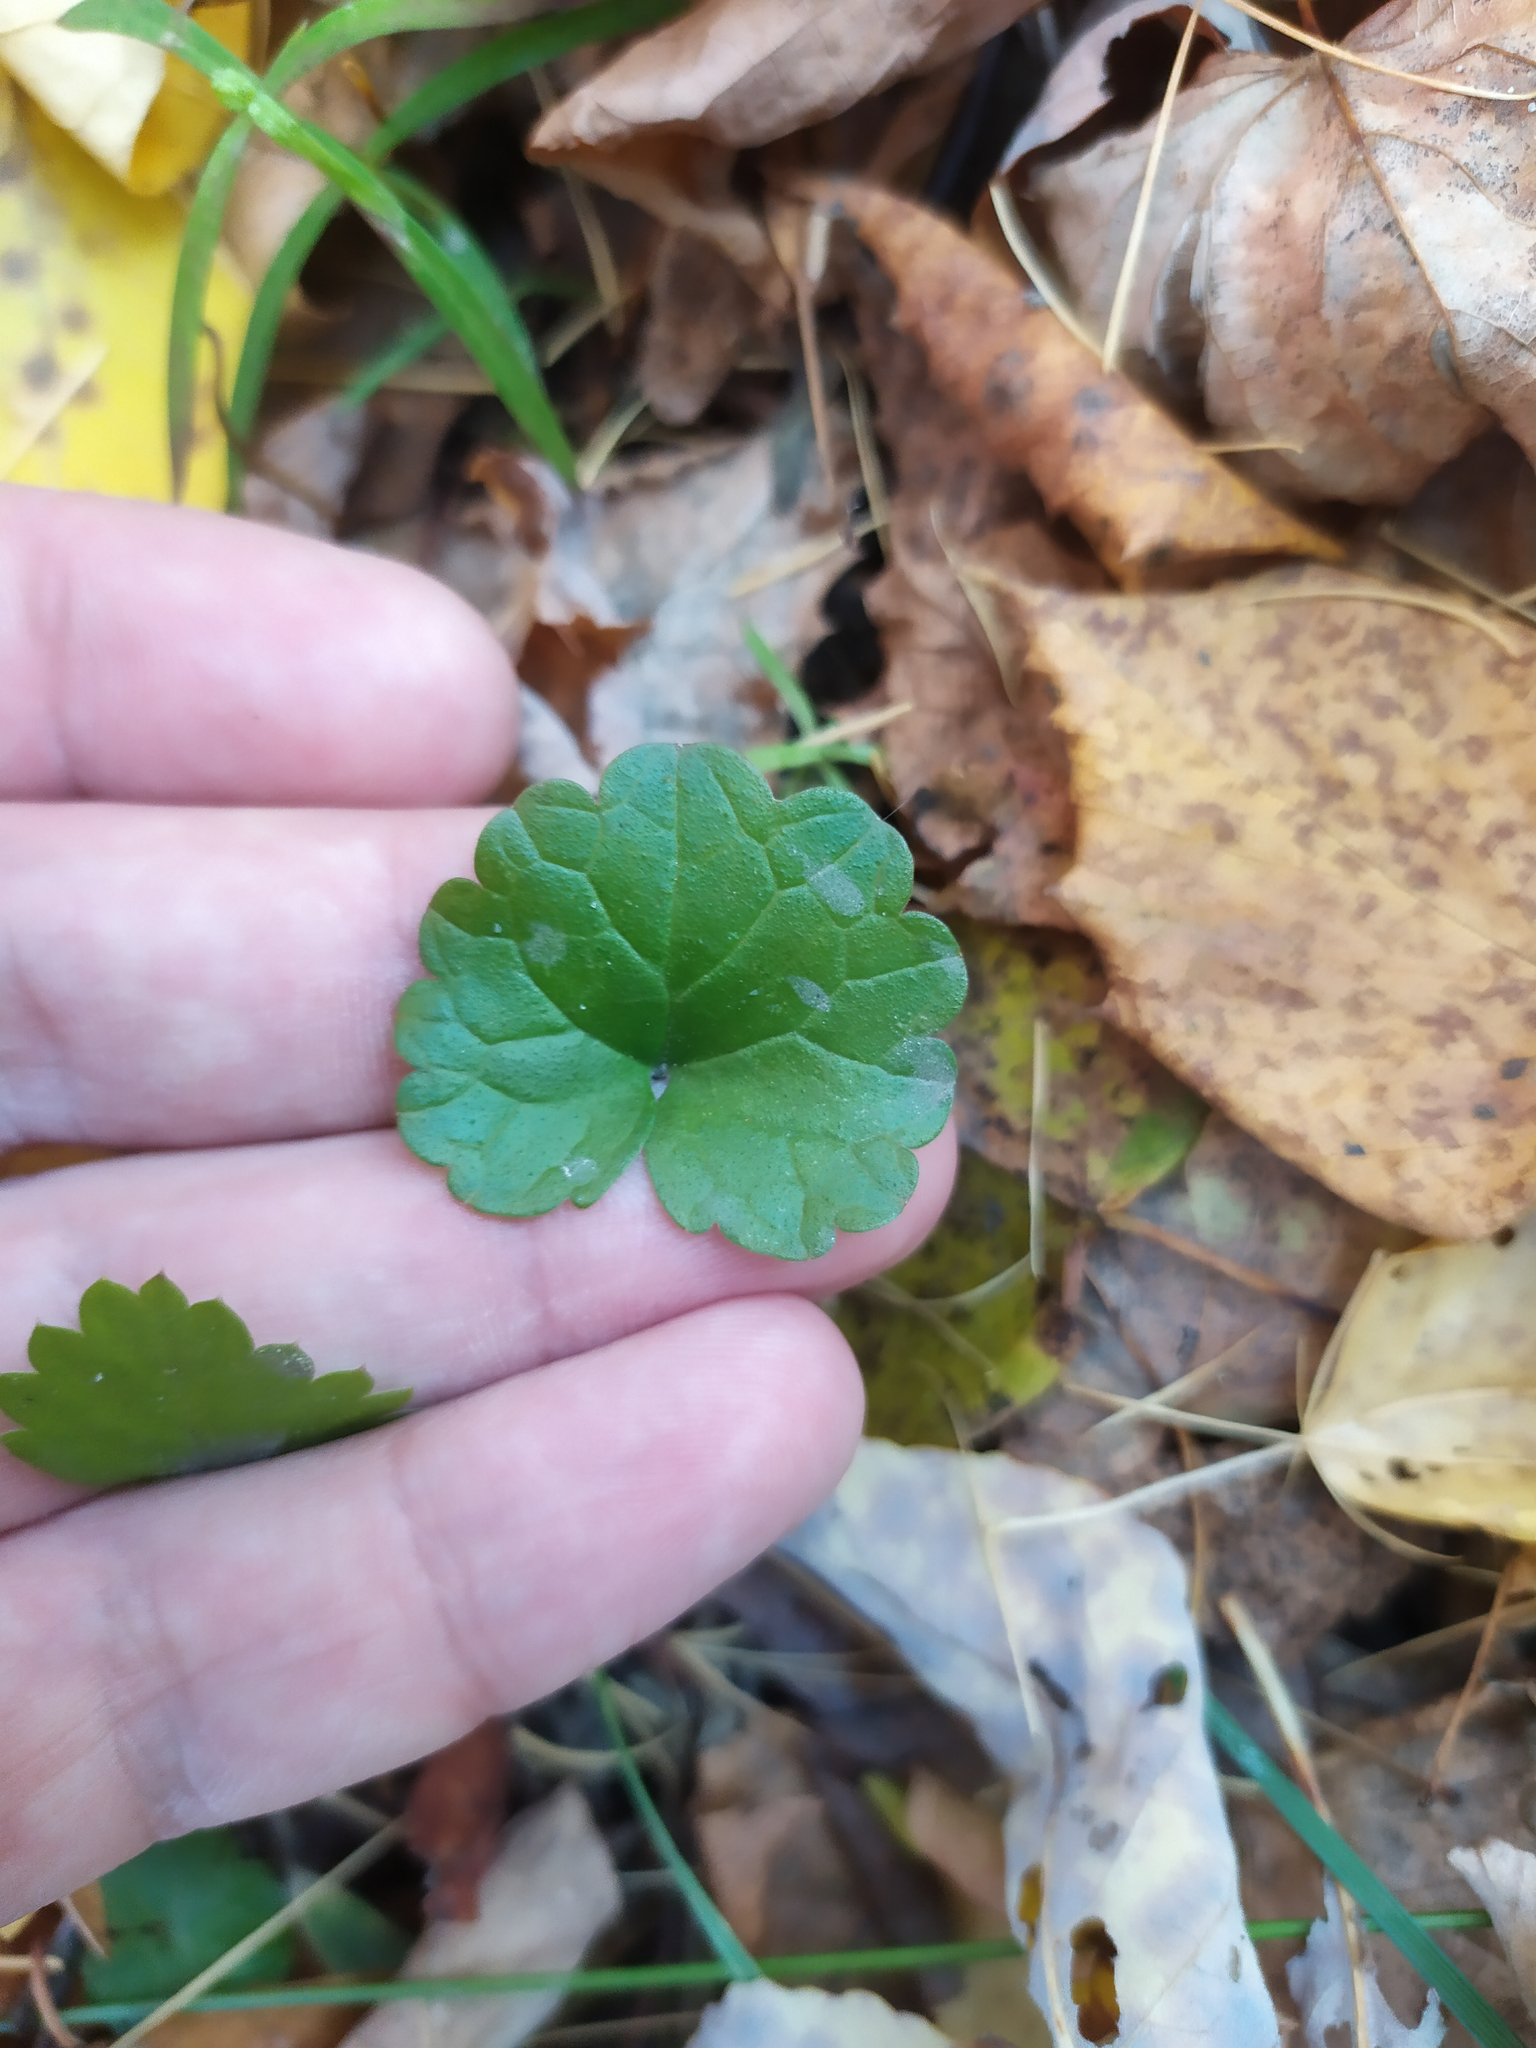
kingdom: Plantae
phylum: Tracheophyta
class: Magnoliopsida
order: Lamiales
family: Lamiaceae
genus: Glechoma
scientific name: Glechoma hederacea
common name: Ground ivy
